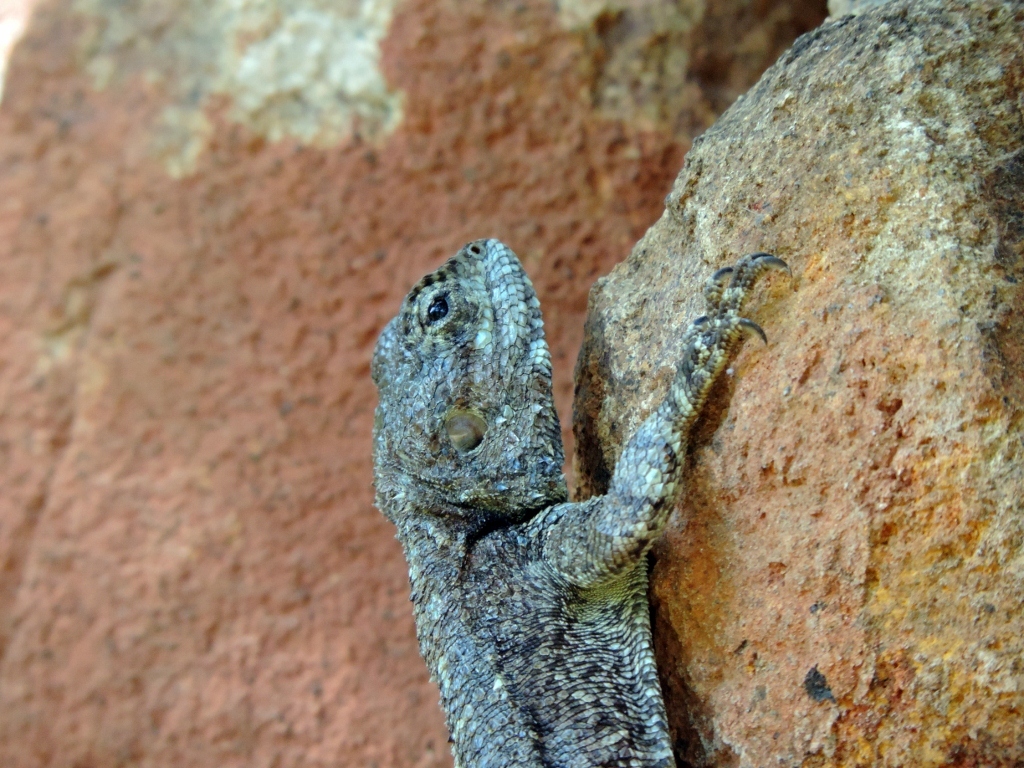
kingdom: Animalia
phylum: Chordata
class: Squamata
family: Agamidae
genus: Acanthocercus
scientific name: Acanthocercus atricollis
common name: Southern tree agama
